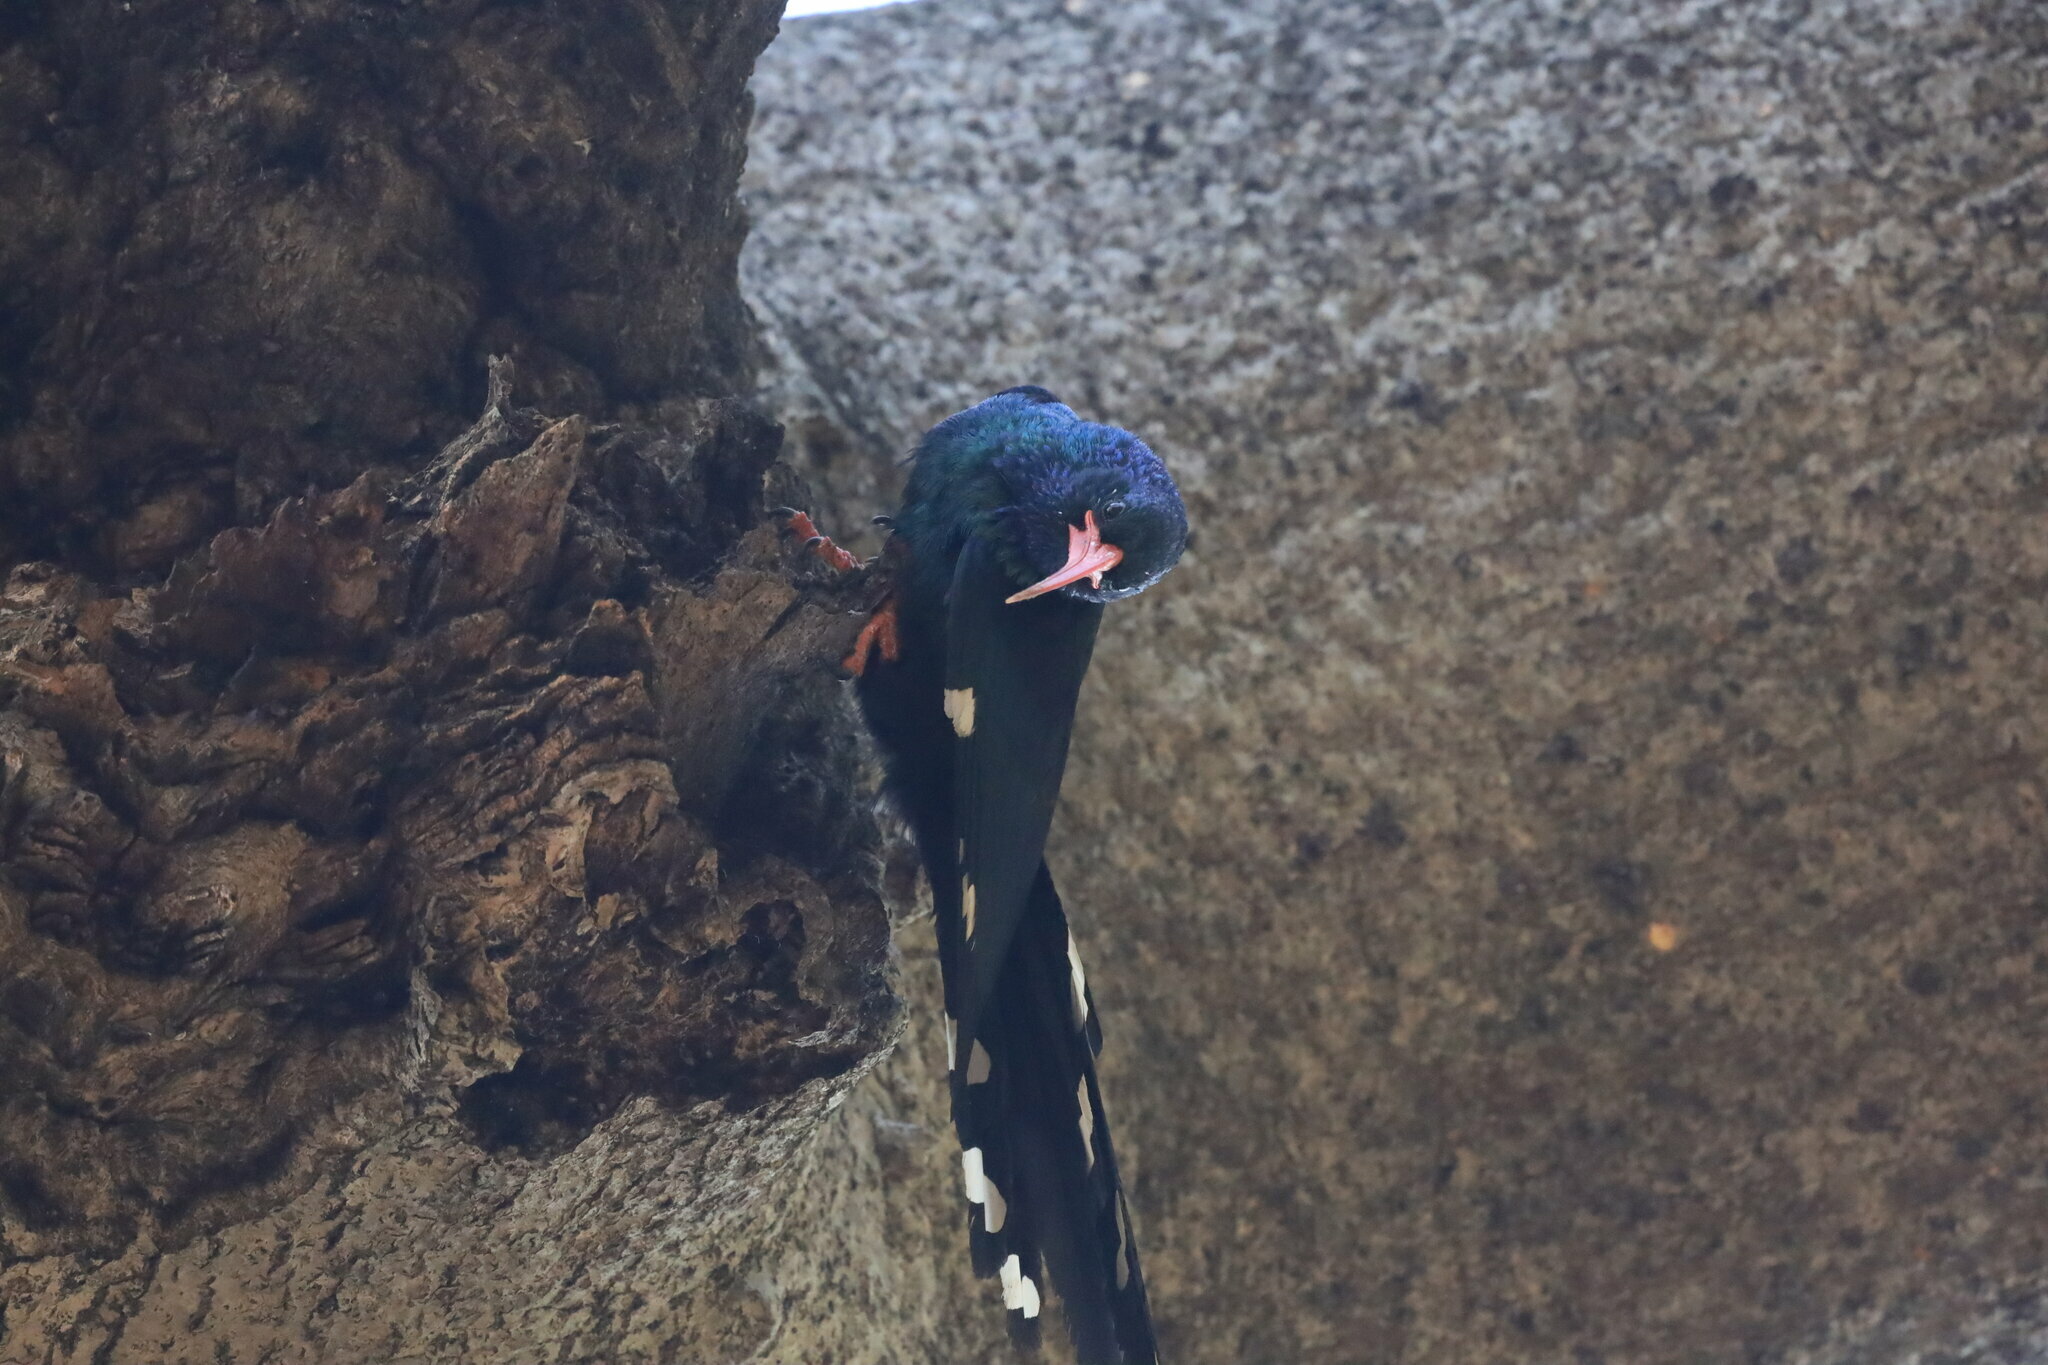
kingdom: Animalia
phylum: Chordata
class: Aves
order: Bucerotiformes
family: Phoeniculidae
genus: Phoeniculus
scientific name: Phoeniculus purpureus
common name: Green woodhoopoe
